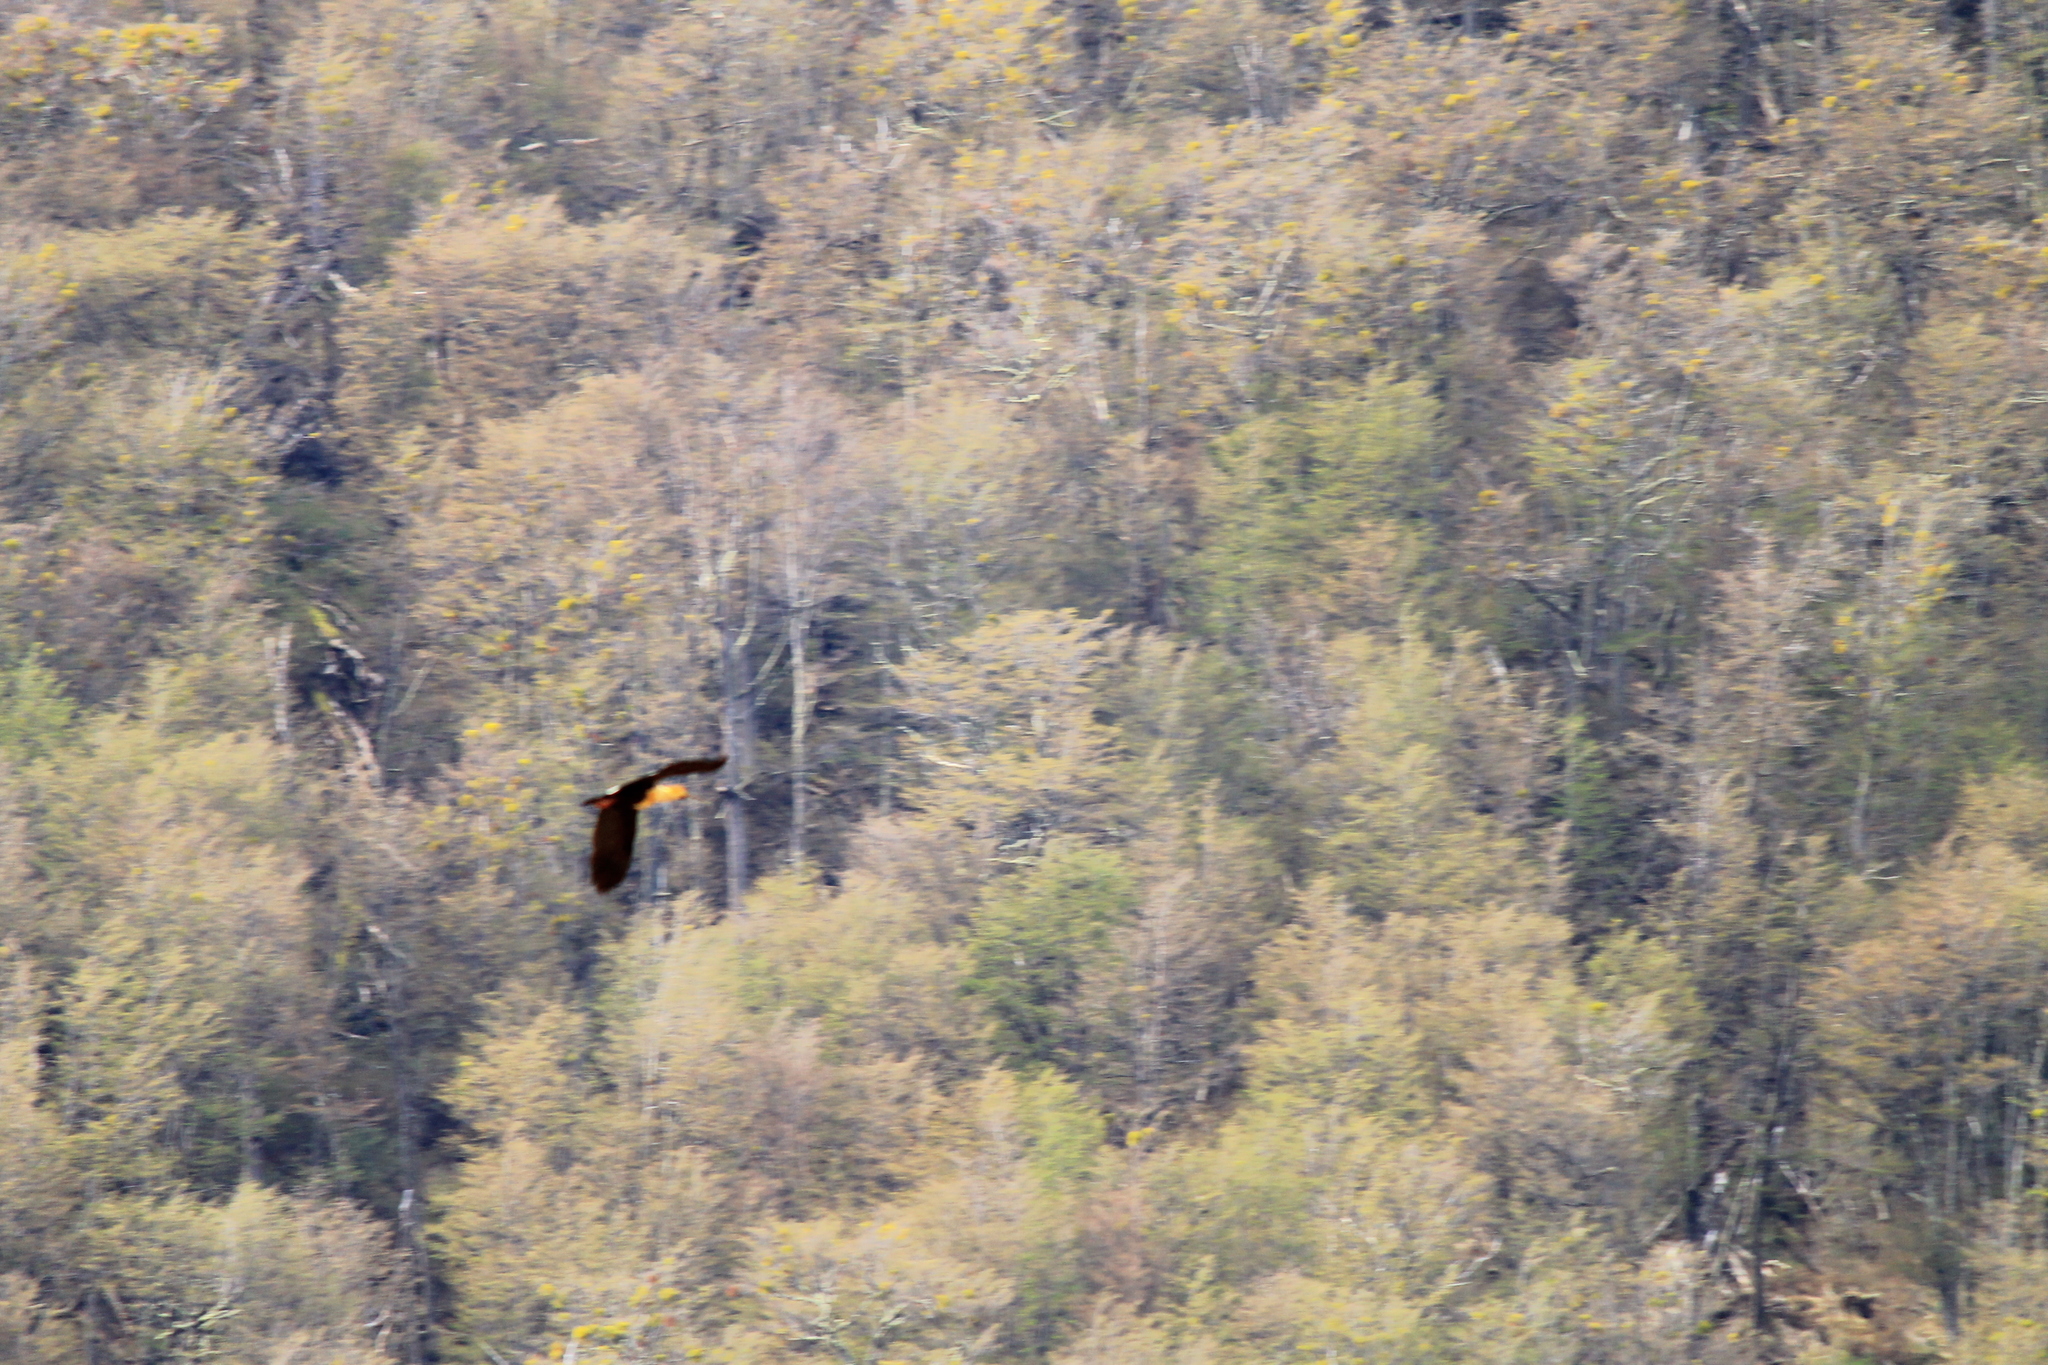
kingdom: Animalia
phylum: Chordata
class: Aves
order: Pelecaniformes
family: Threskiornithidae
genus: Theristicus
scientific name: Theristicus melanopis
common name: Black-faced ibis
